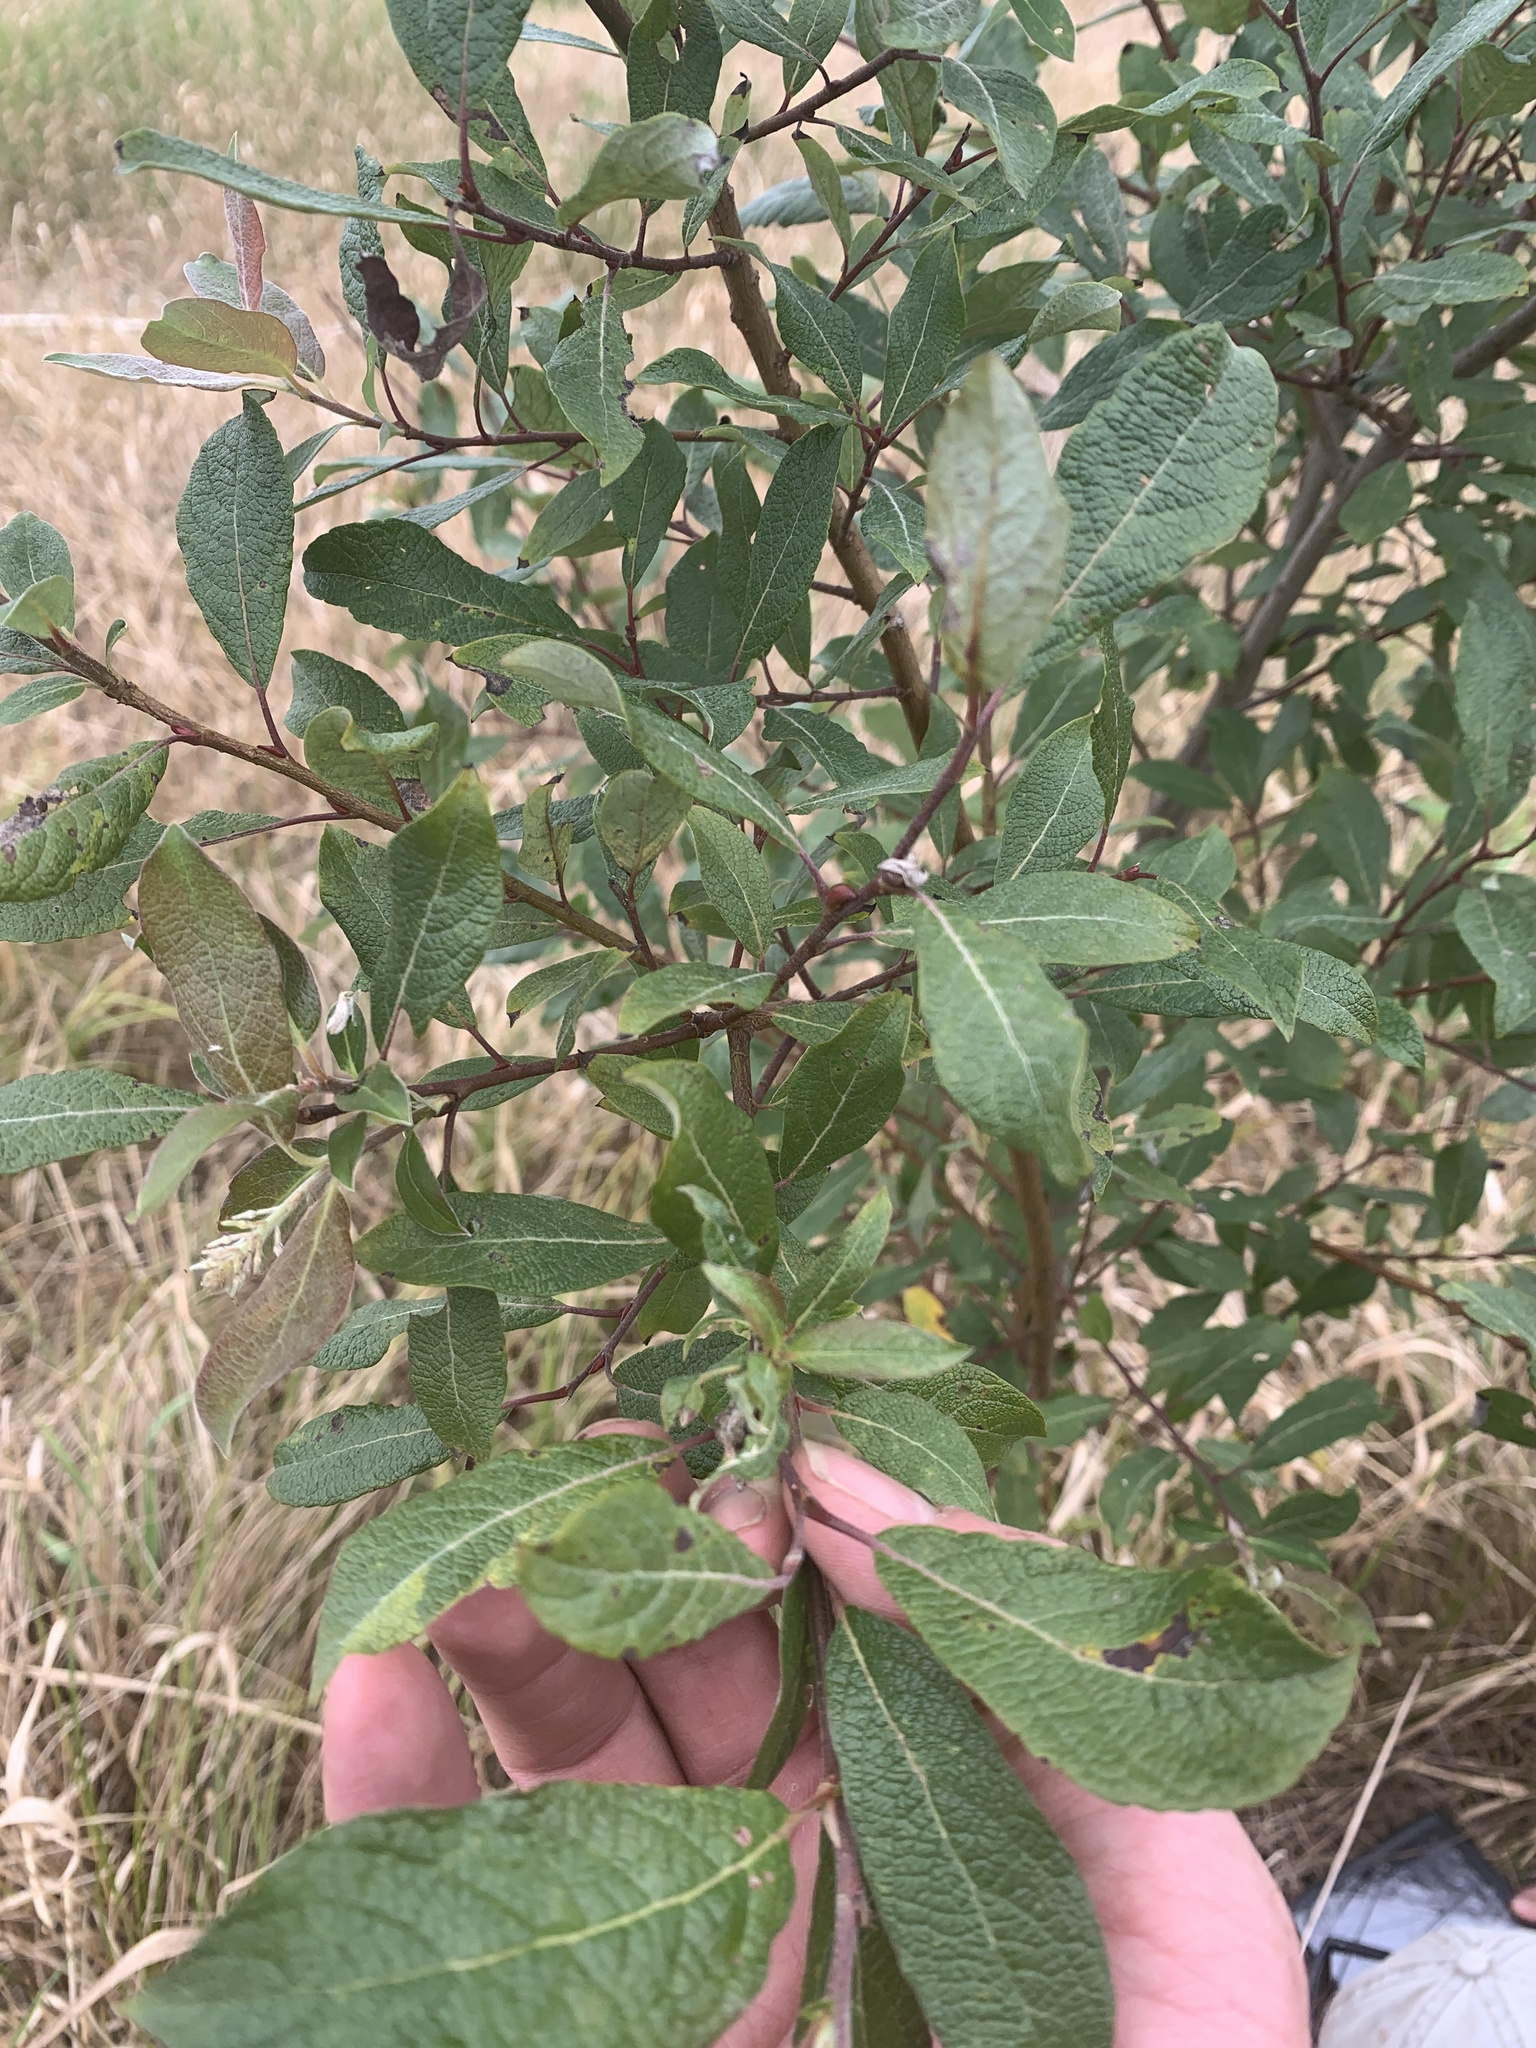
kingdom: Plantae
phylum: Tracheophyta
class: Magnoliopsida
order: Malpighiales
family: Salicaceae
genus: Salix
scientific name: Salix bebbiana
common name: Bebb's willow
